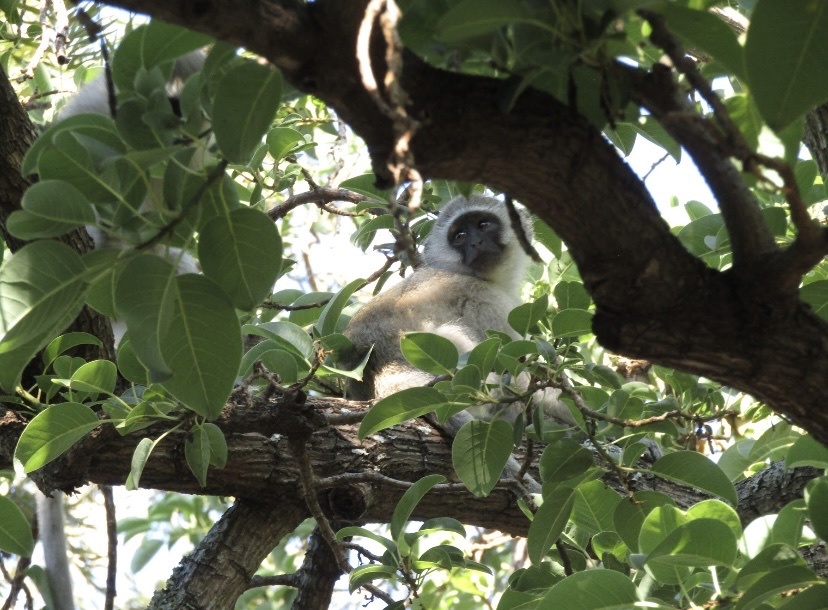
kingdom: Animalia
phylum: Chordata
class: Mammalia
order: Primates
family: Cercopithecidae
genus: Chlorocebus
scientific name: Chlorocebus pygerythrus
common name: Vervet monkey
